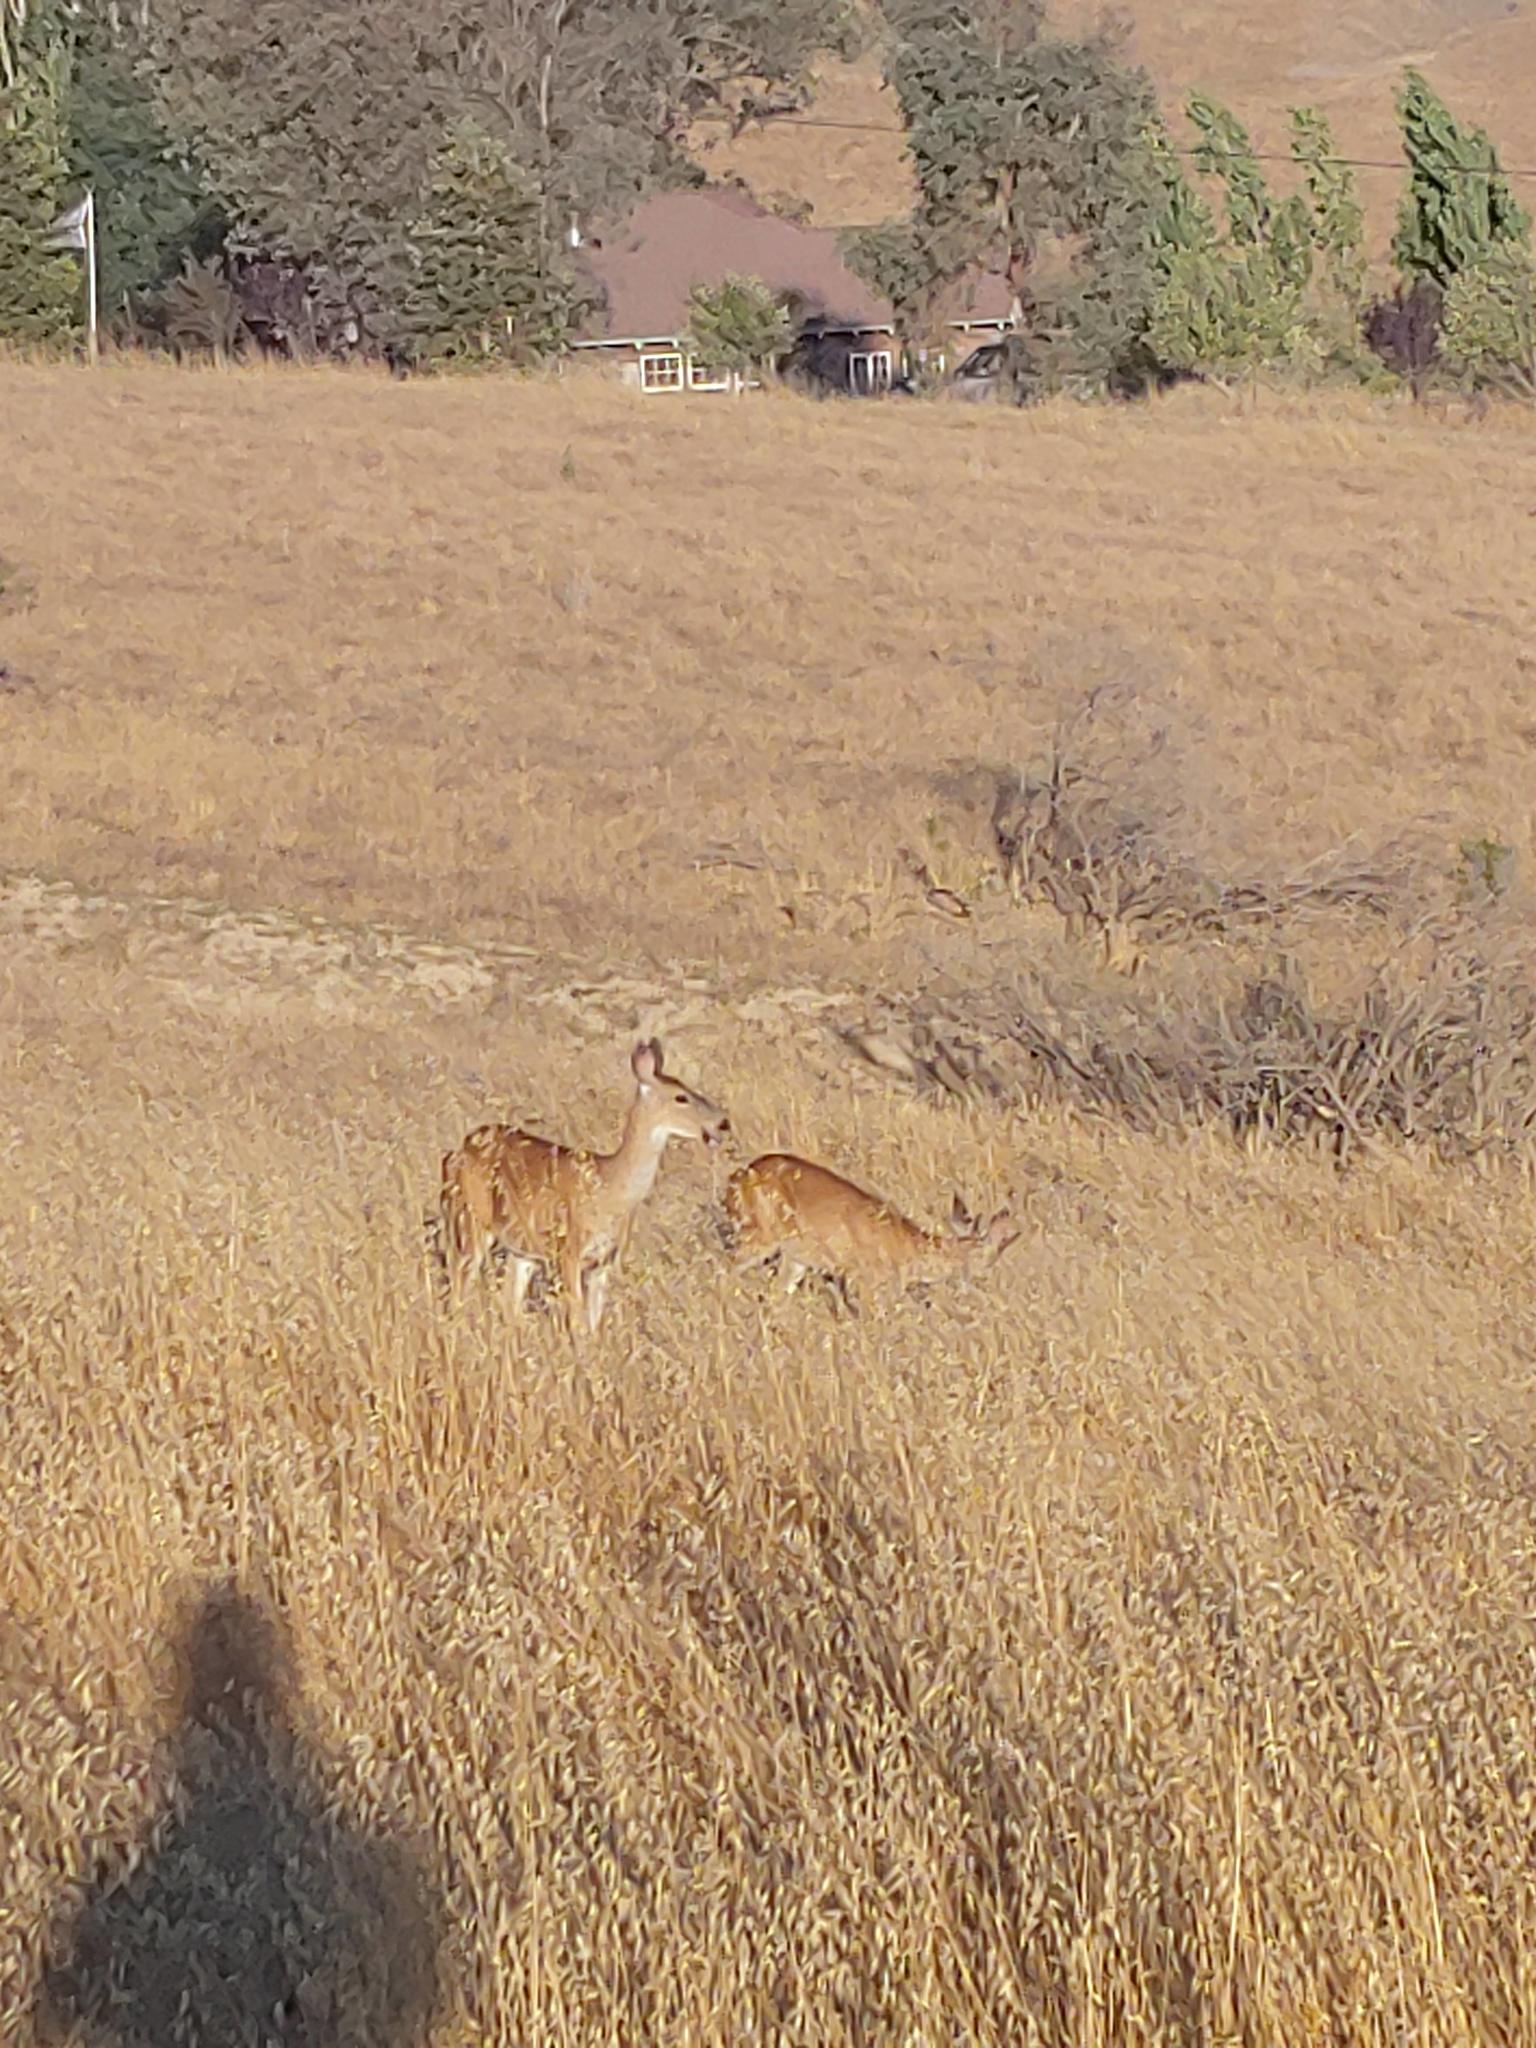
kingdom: Animalia
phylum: Chordata
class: Mammalia
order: Artiodactyla
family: Cervidae
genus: Odocoileus
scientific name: Odocoileus hemionus
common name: Mule deer
